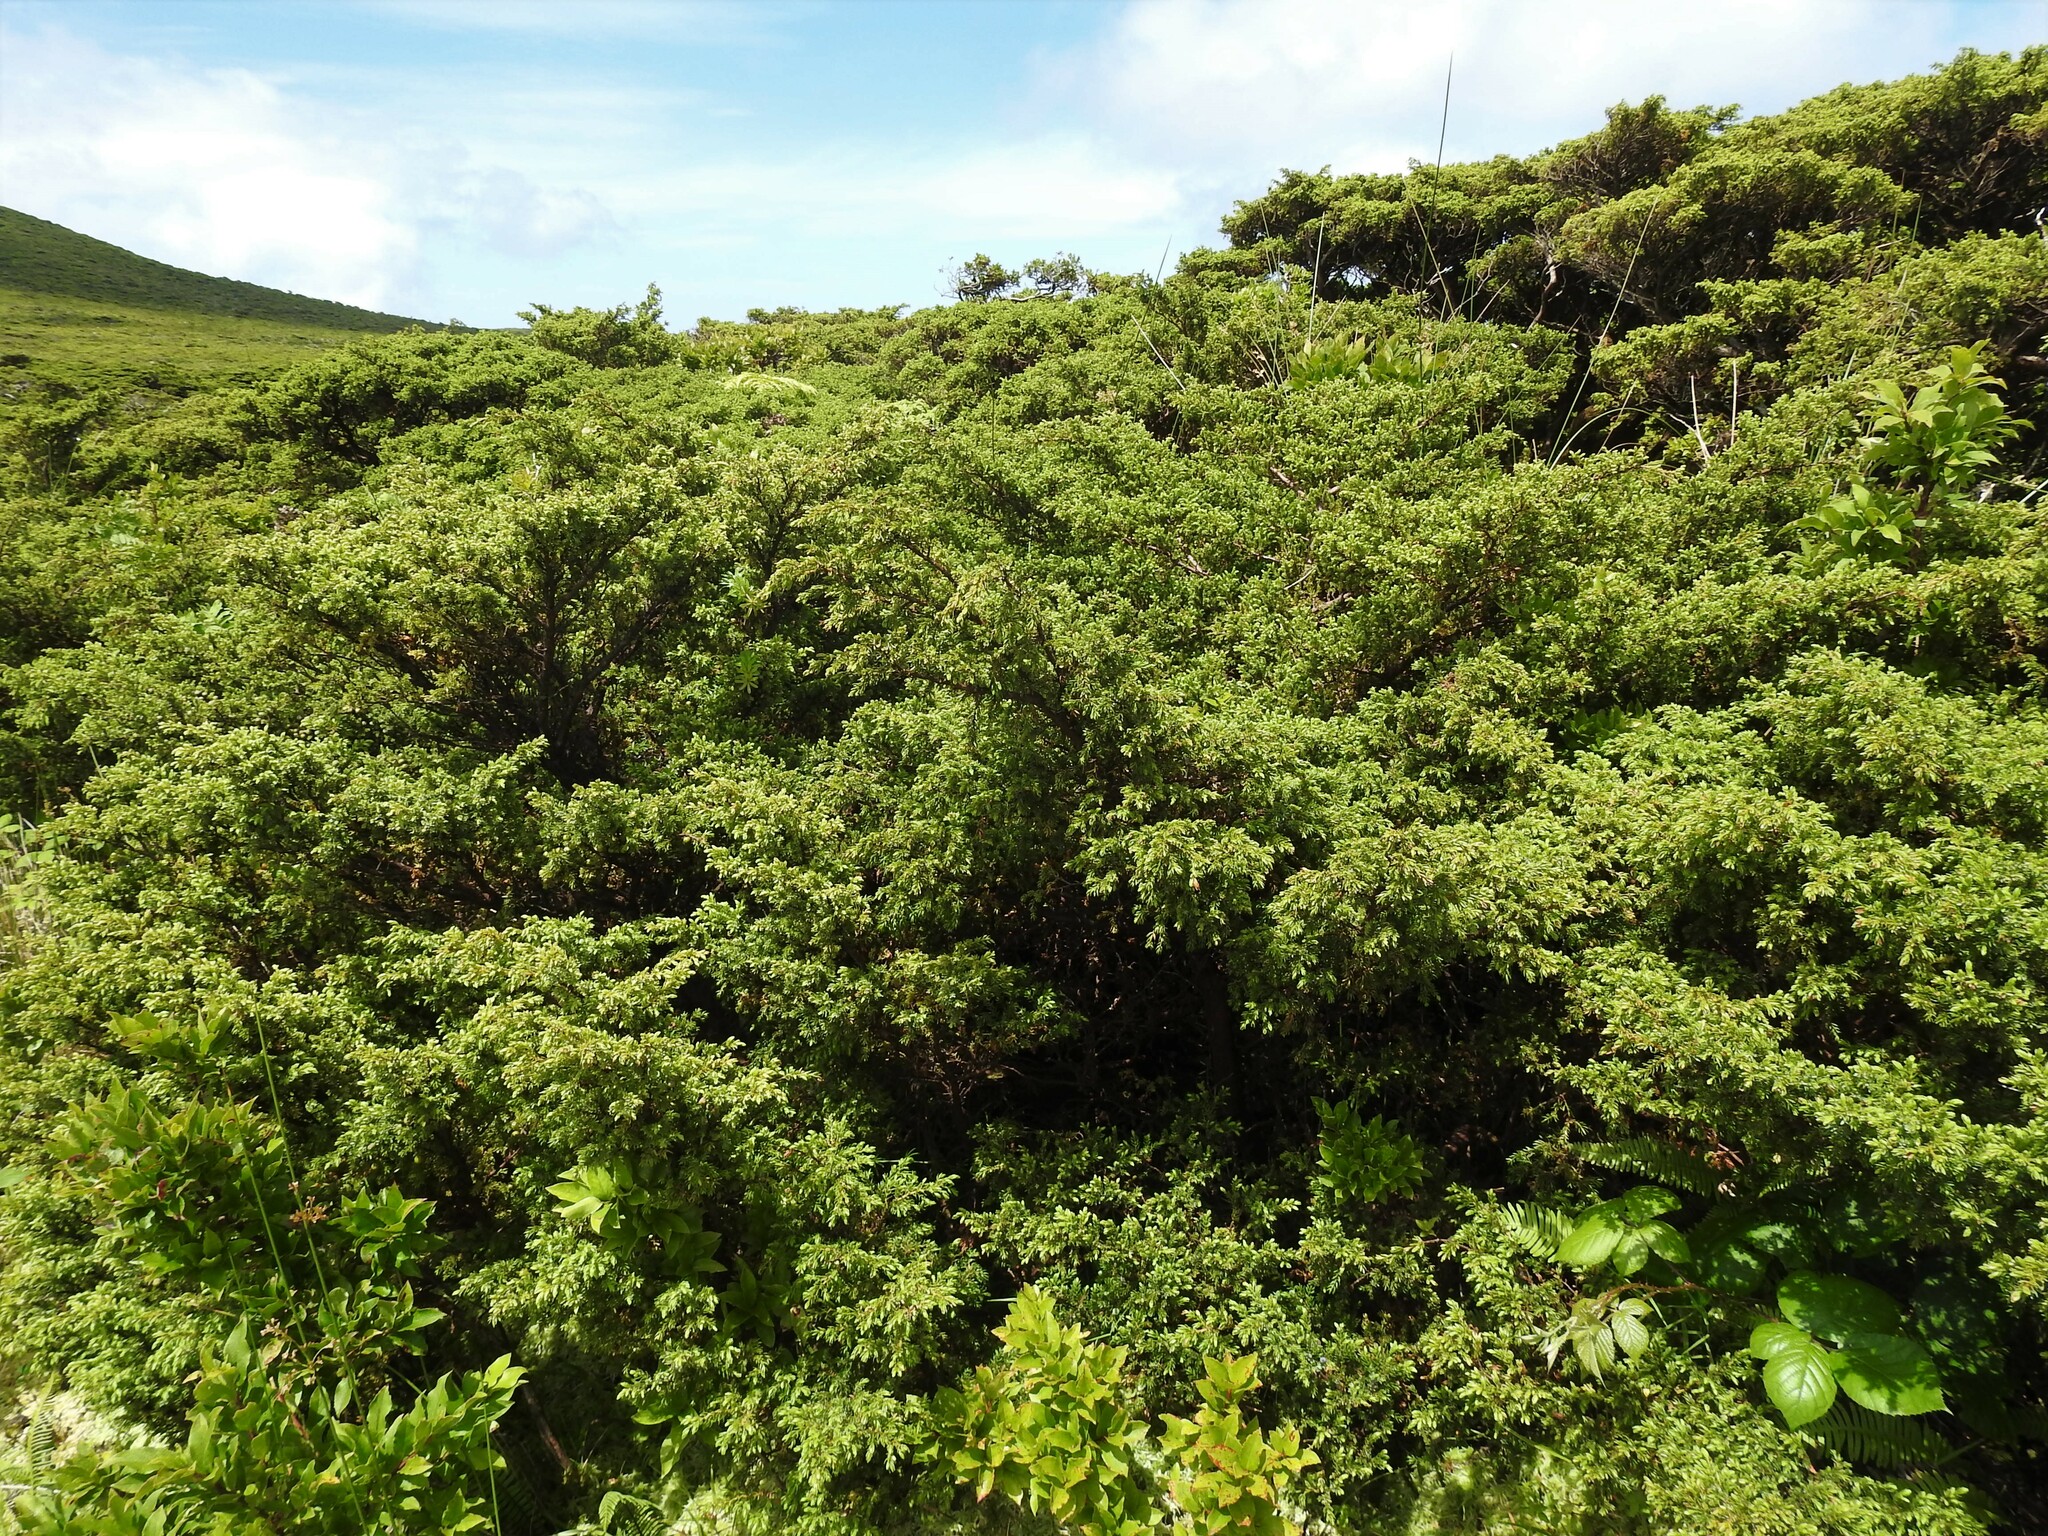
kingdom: Plantae
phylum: Tracheophyta
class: Pinopsida
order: Pinales
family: Cupressaceae
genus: Juniperus
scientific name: Juniperus brevifolia
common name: Azores juniper
